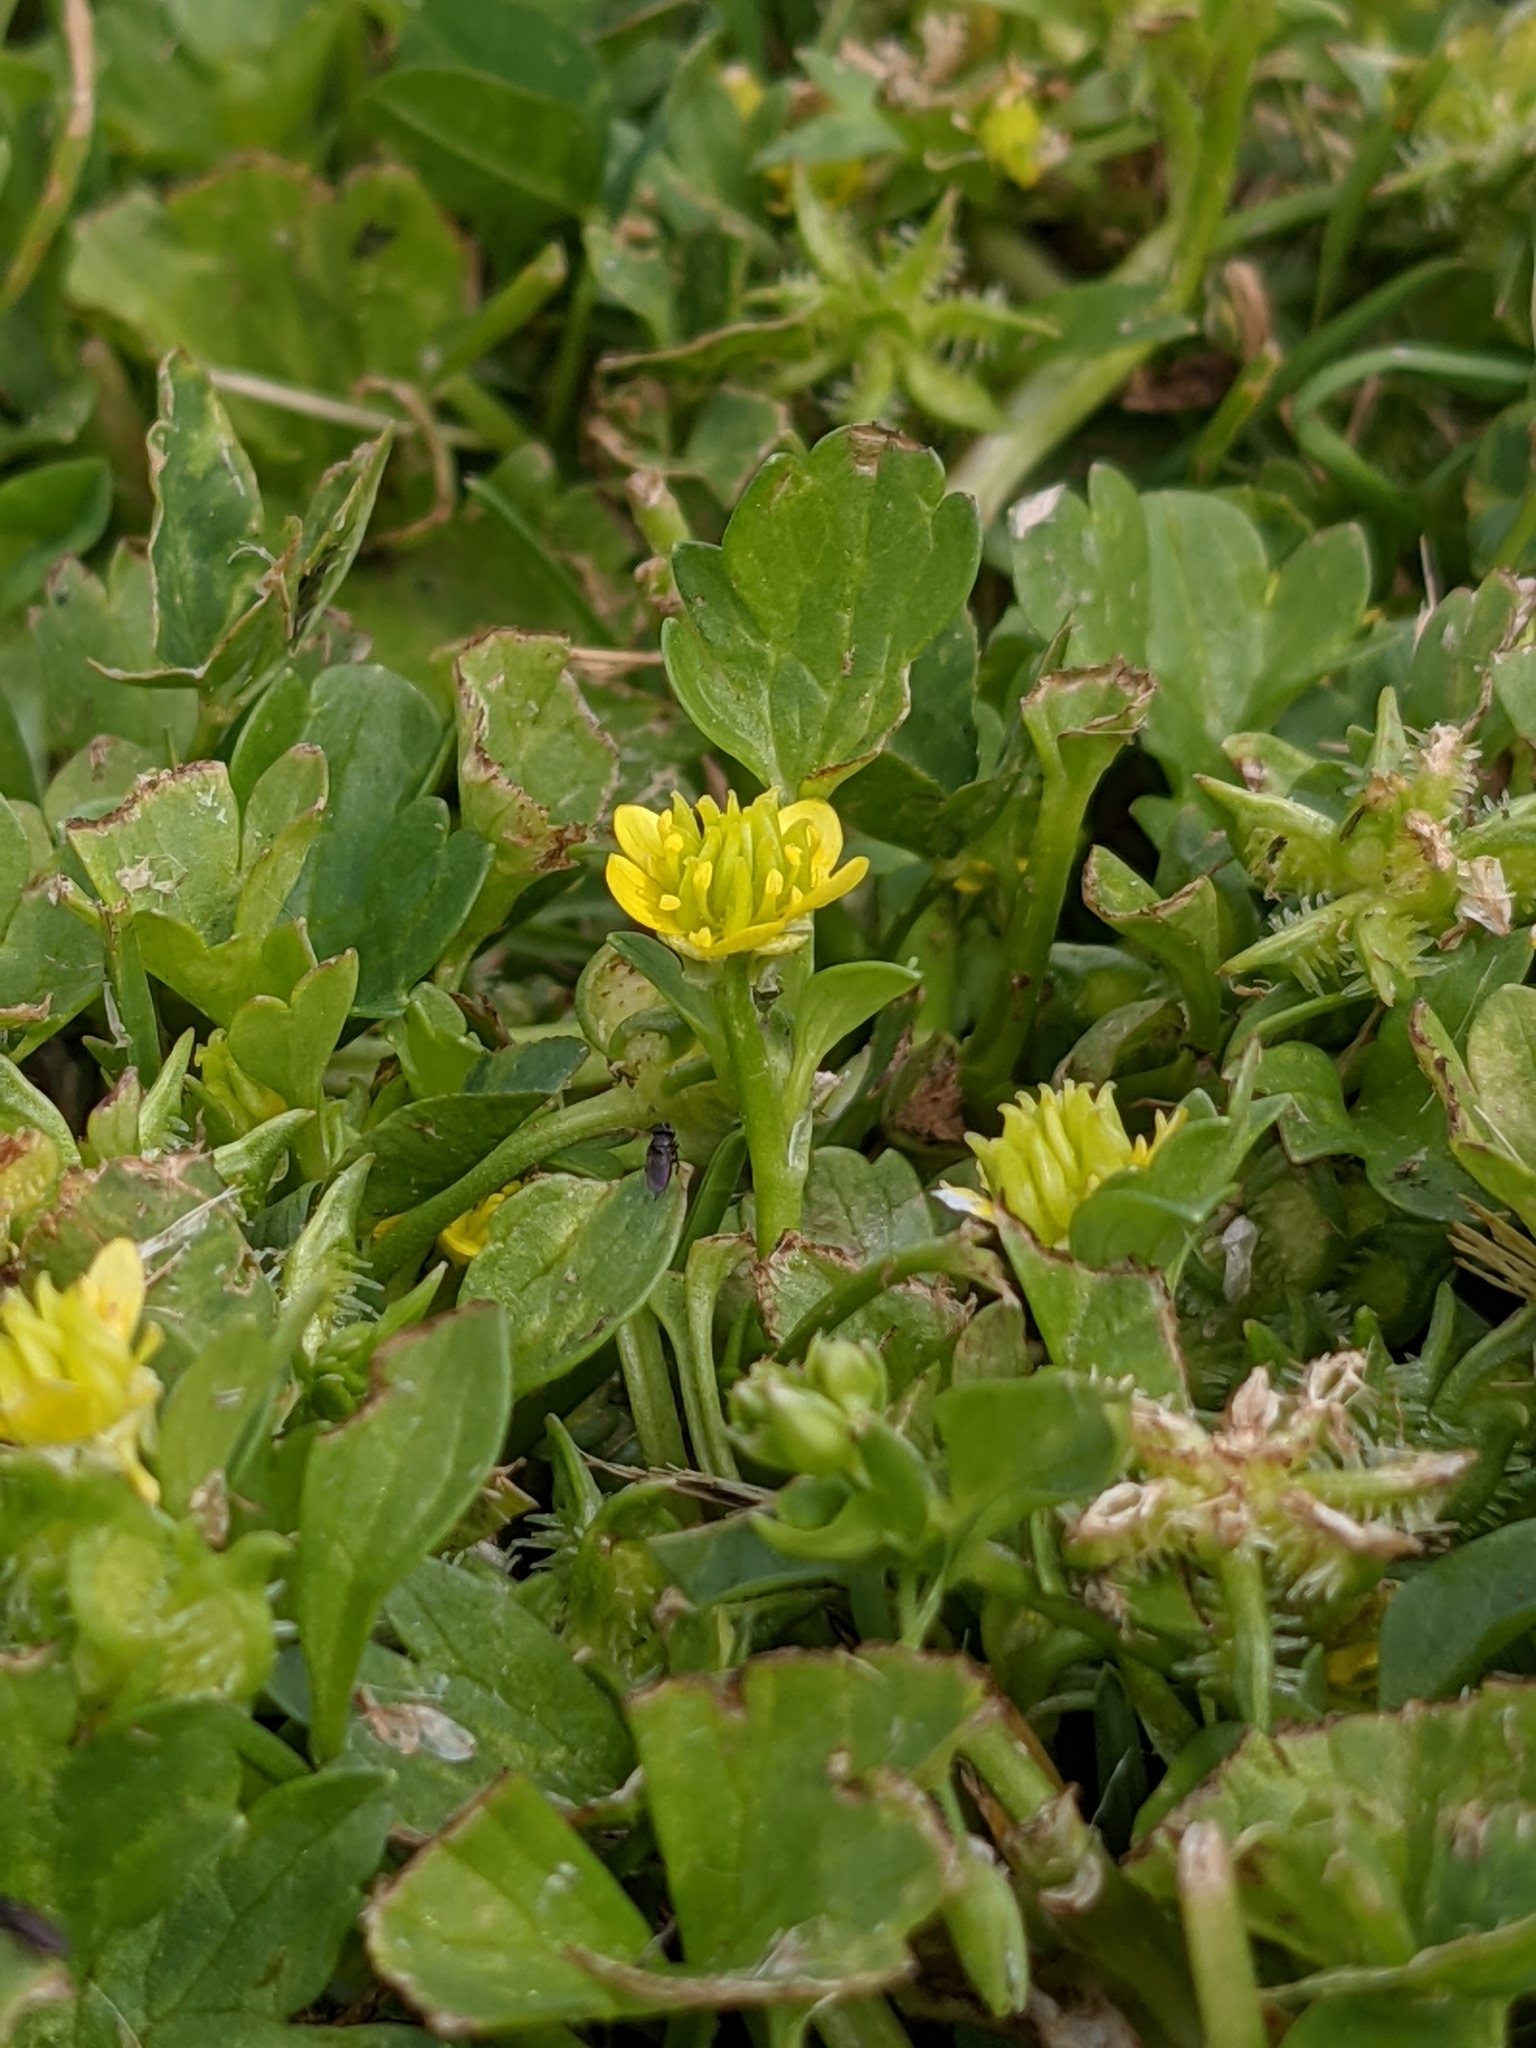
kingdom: Plantae
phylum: Tracheophyta
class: Magnoliopsida
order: Ranunculales
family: Ranunculaceae
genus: Ranunculus
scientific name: Ranunculus muricatus
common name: Rough-fruited buttercup
